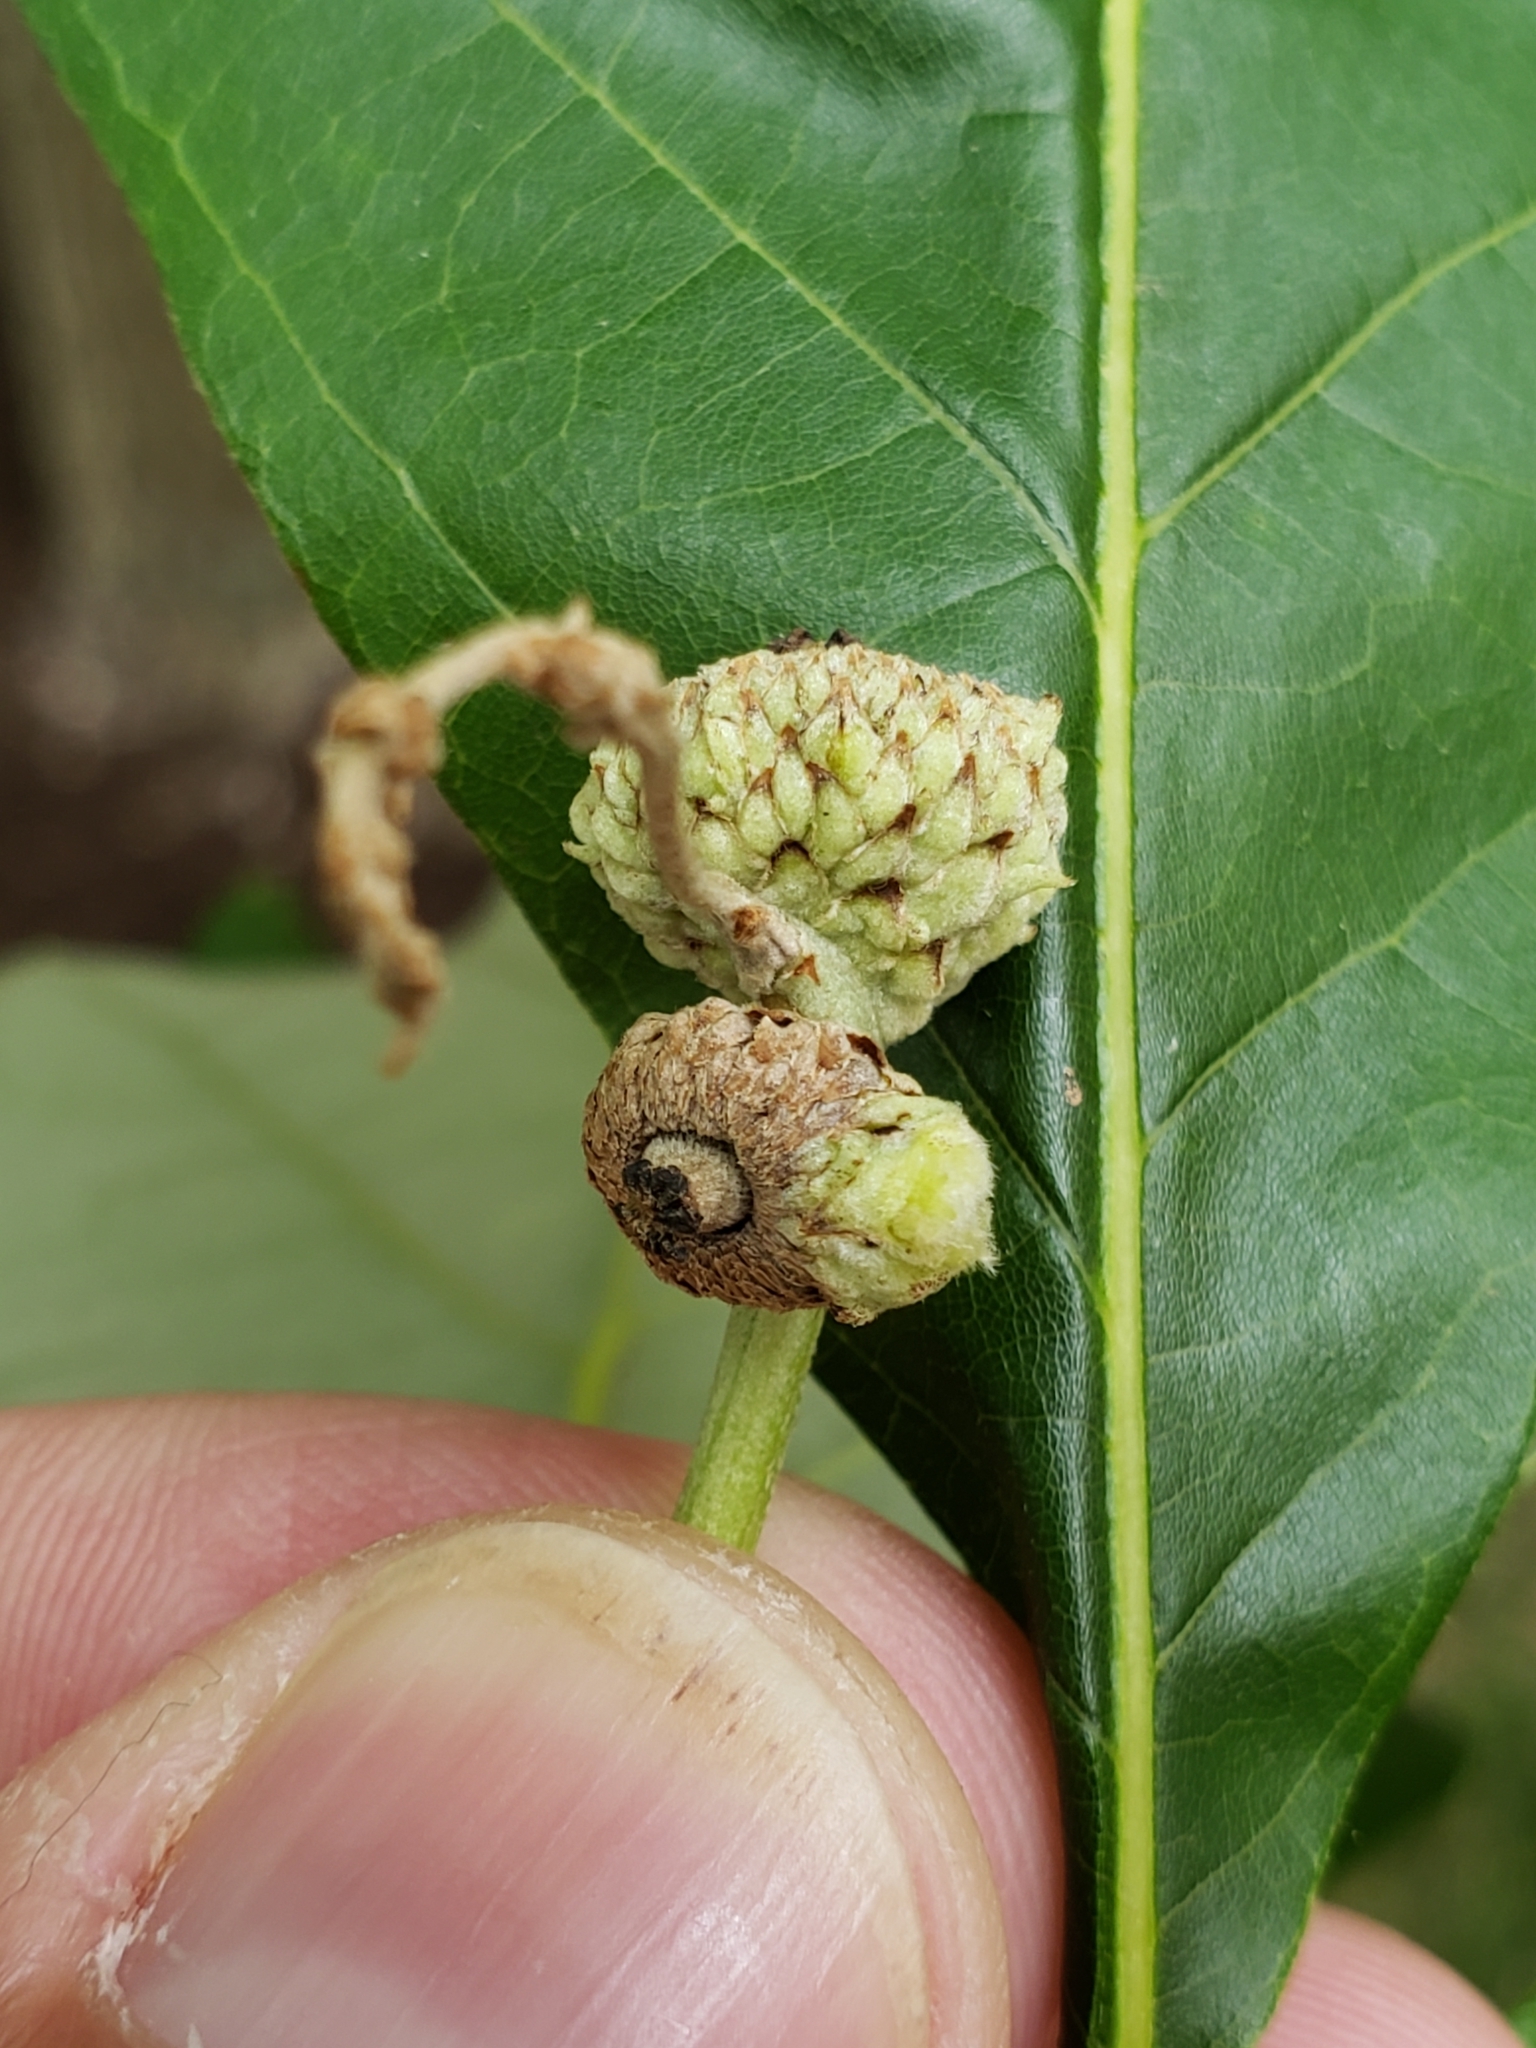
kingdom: Animalia
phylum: Arthropoda
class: Insecta
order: Hymenoptera
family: Cynipidae
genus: Andricus
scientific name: Andricus
